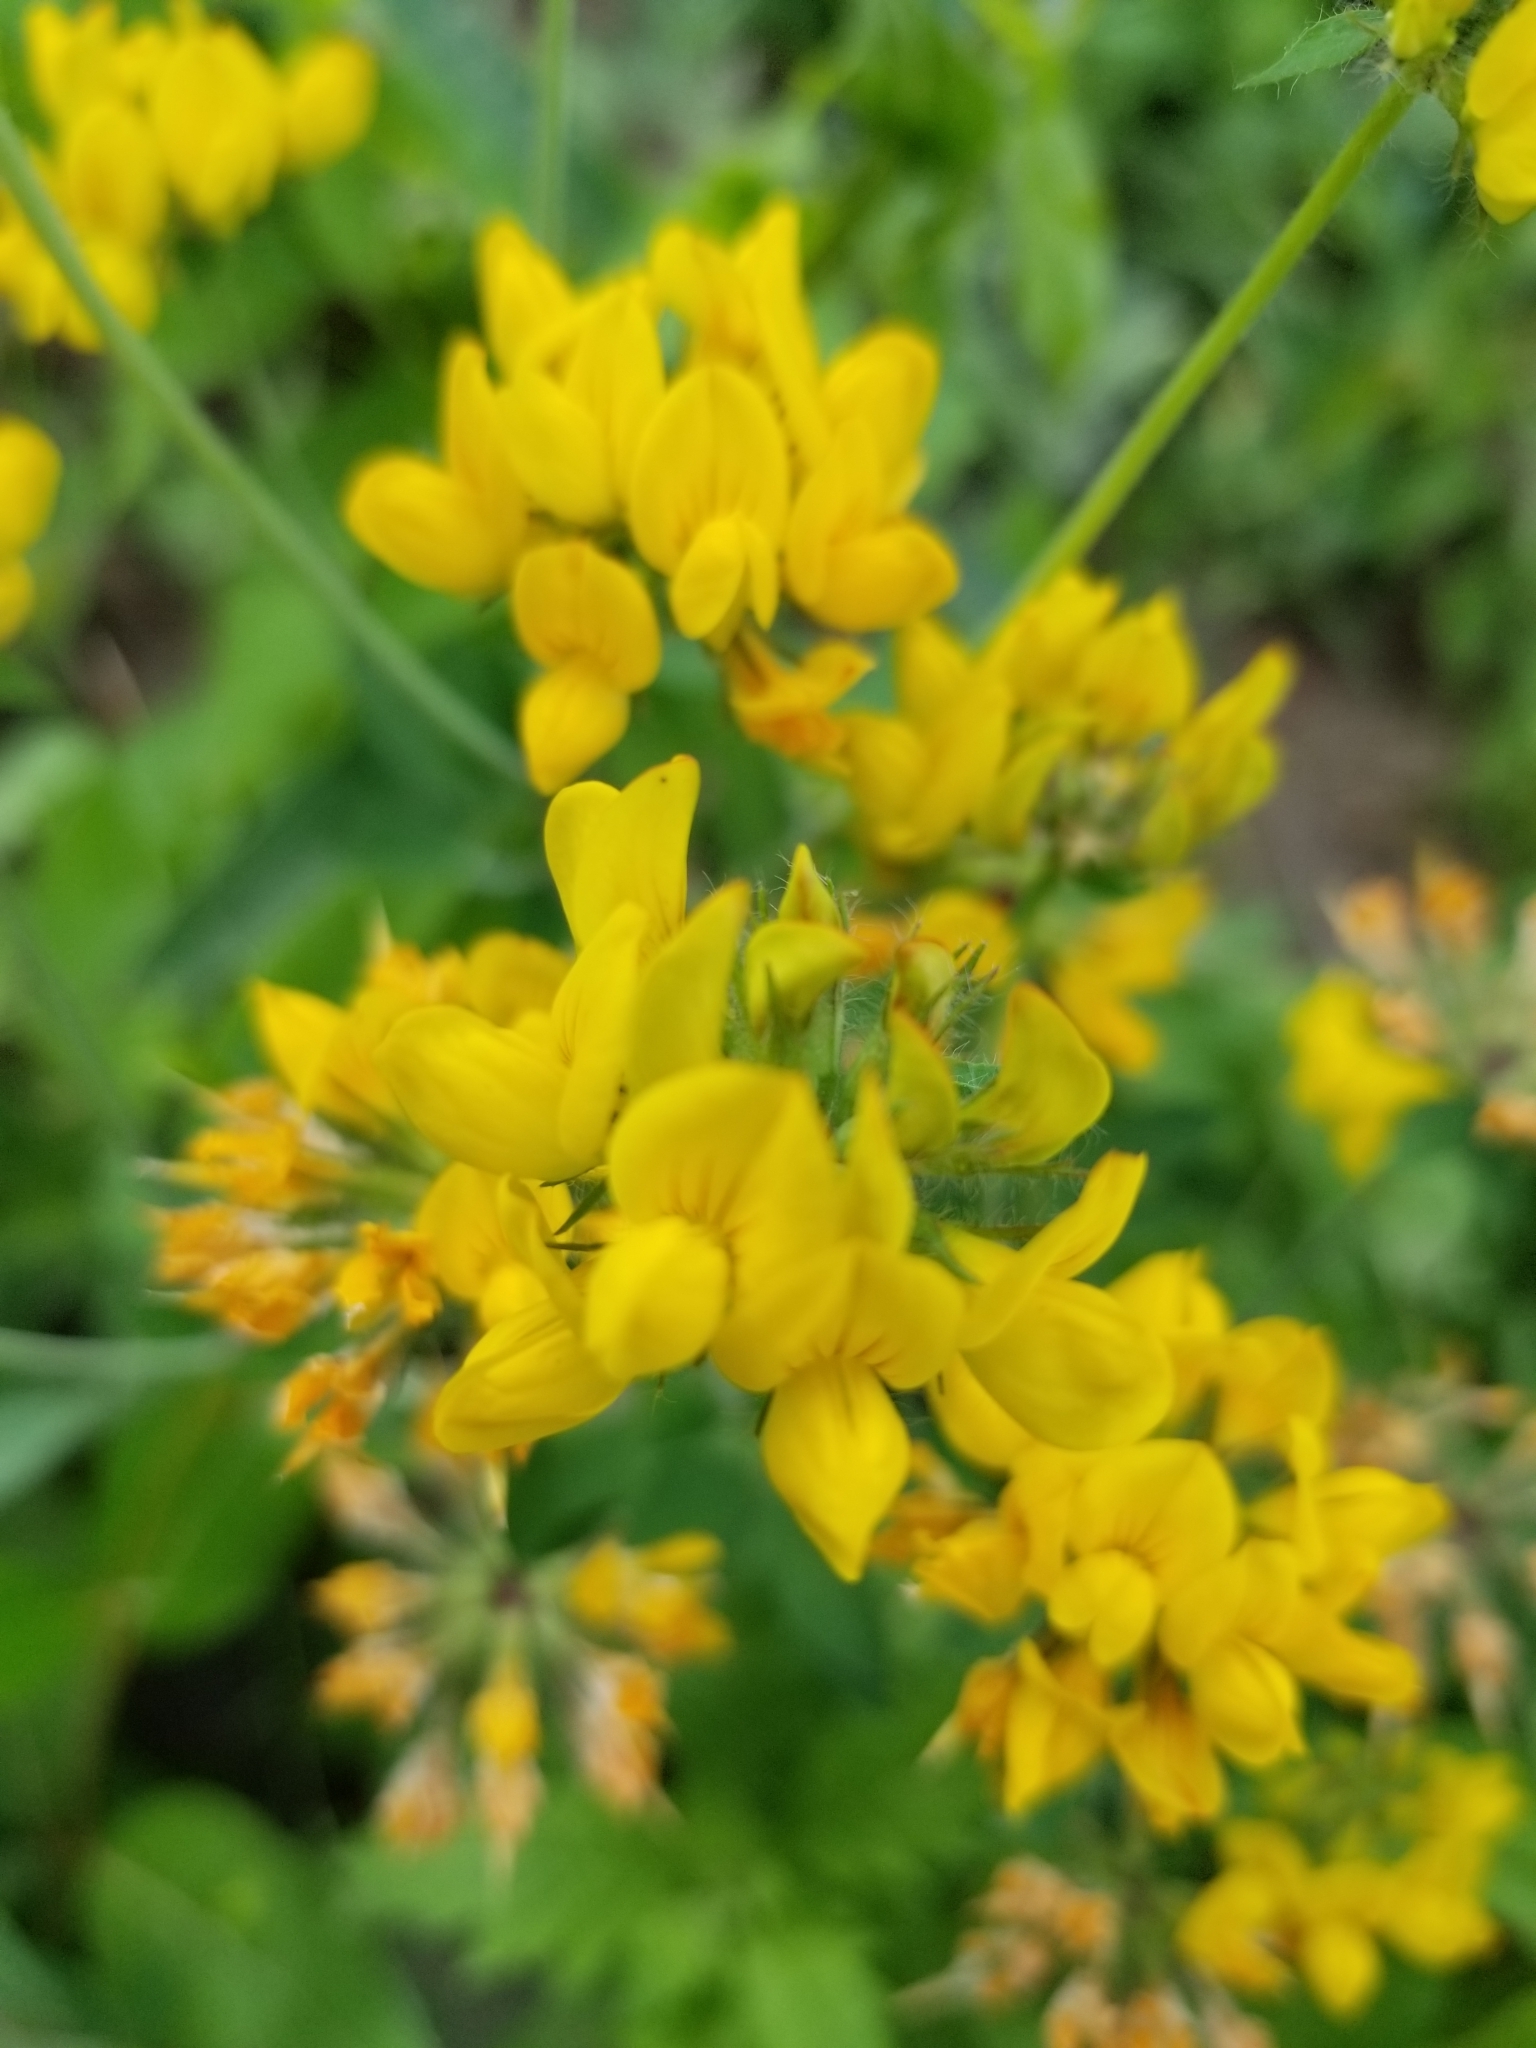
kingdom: Plantae
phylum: Tracheophyta
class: Magnoliopsida
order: Fabales
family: Fabaceae
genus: Lotus
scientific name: Lotus pedunculatus
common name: Greater birdsfoot-trefoil
